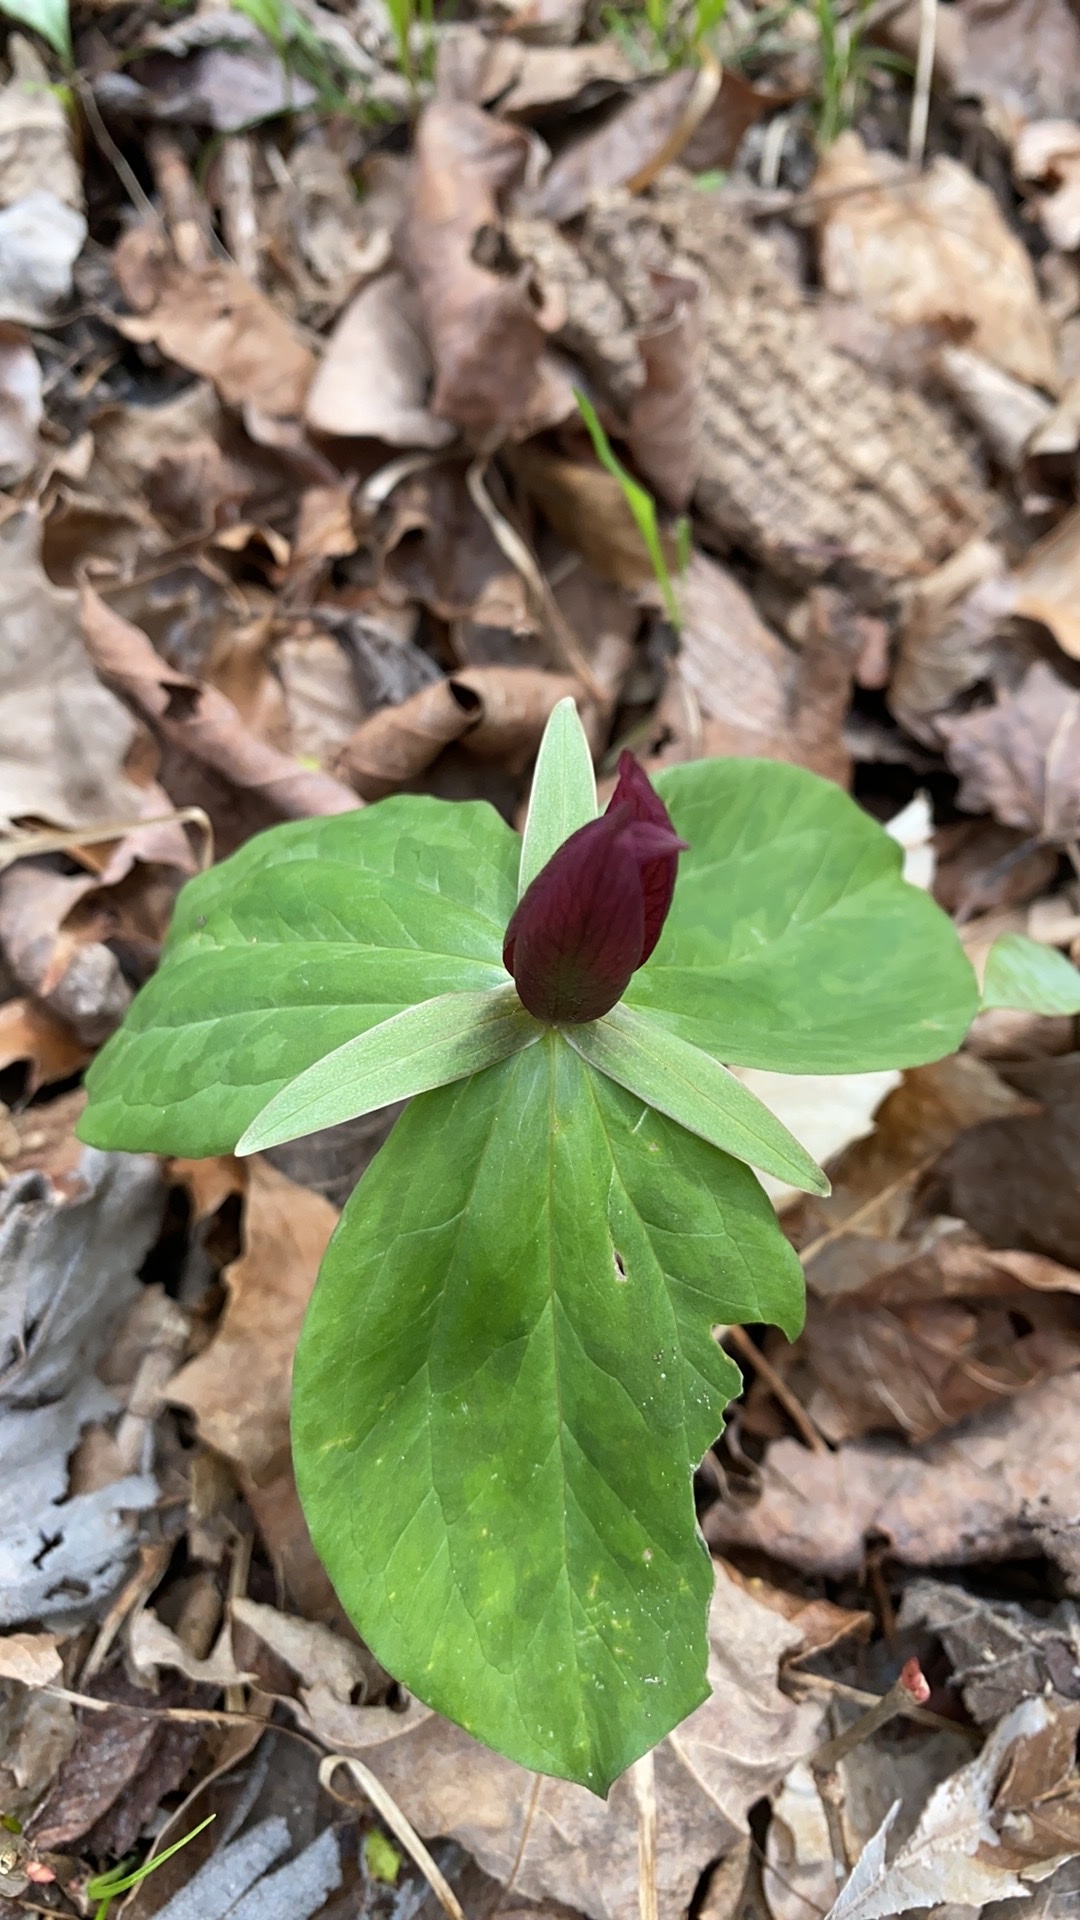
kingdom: Plantae
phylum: Tracheophyta
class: Liliopsida
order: Liliales
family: Melanthiaceae
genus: Trillium
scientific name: Trillium sessile
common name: Sessile trillium
